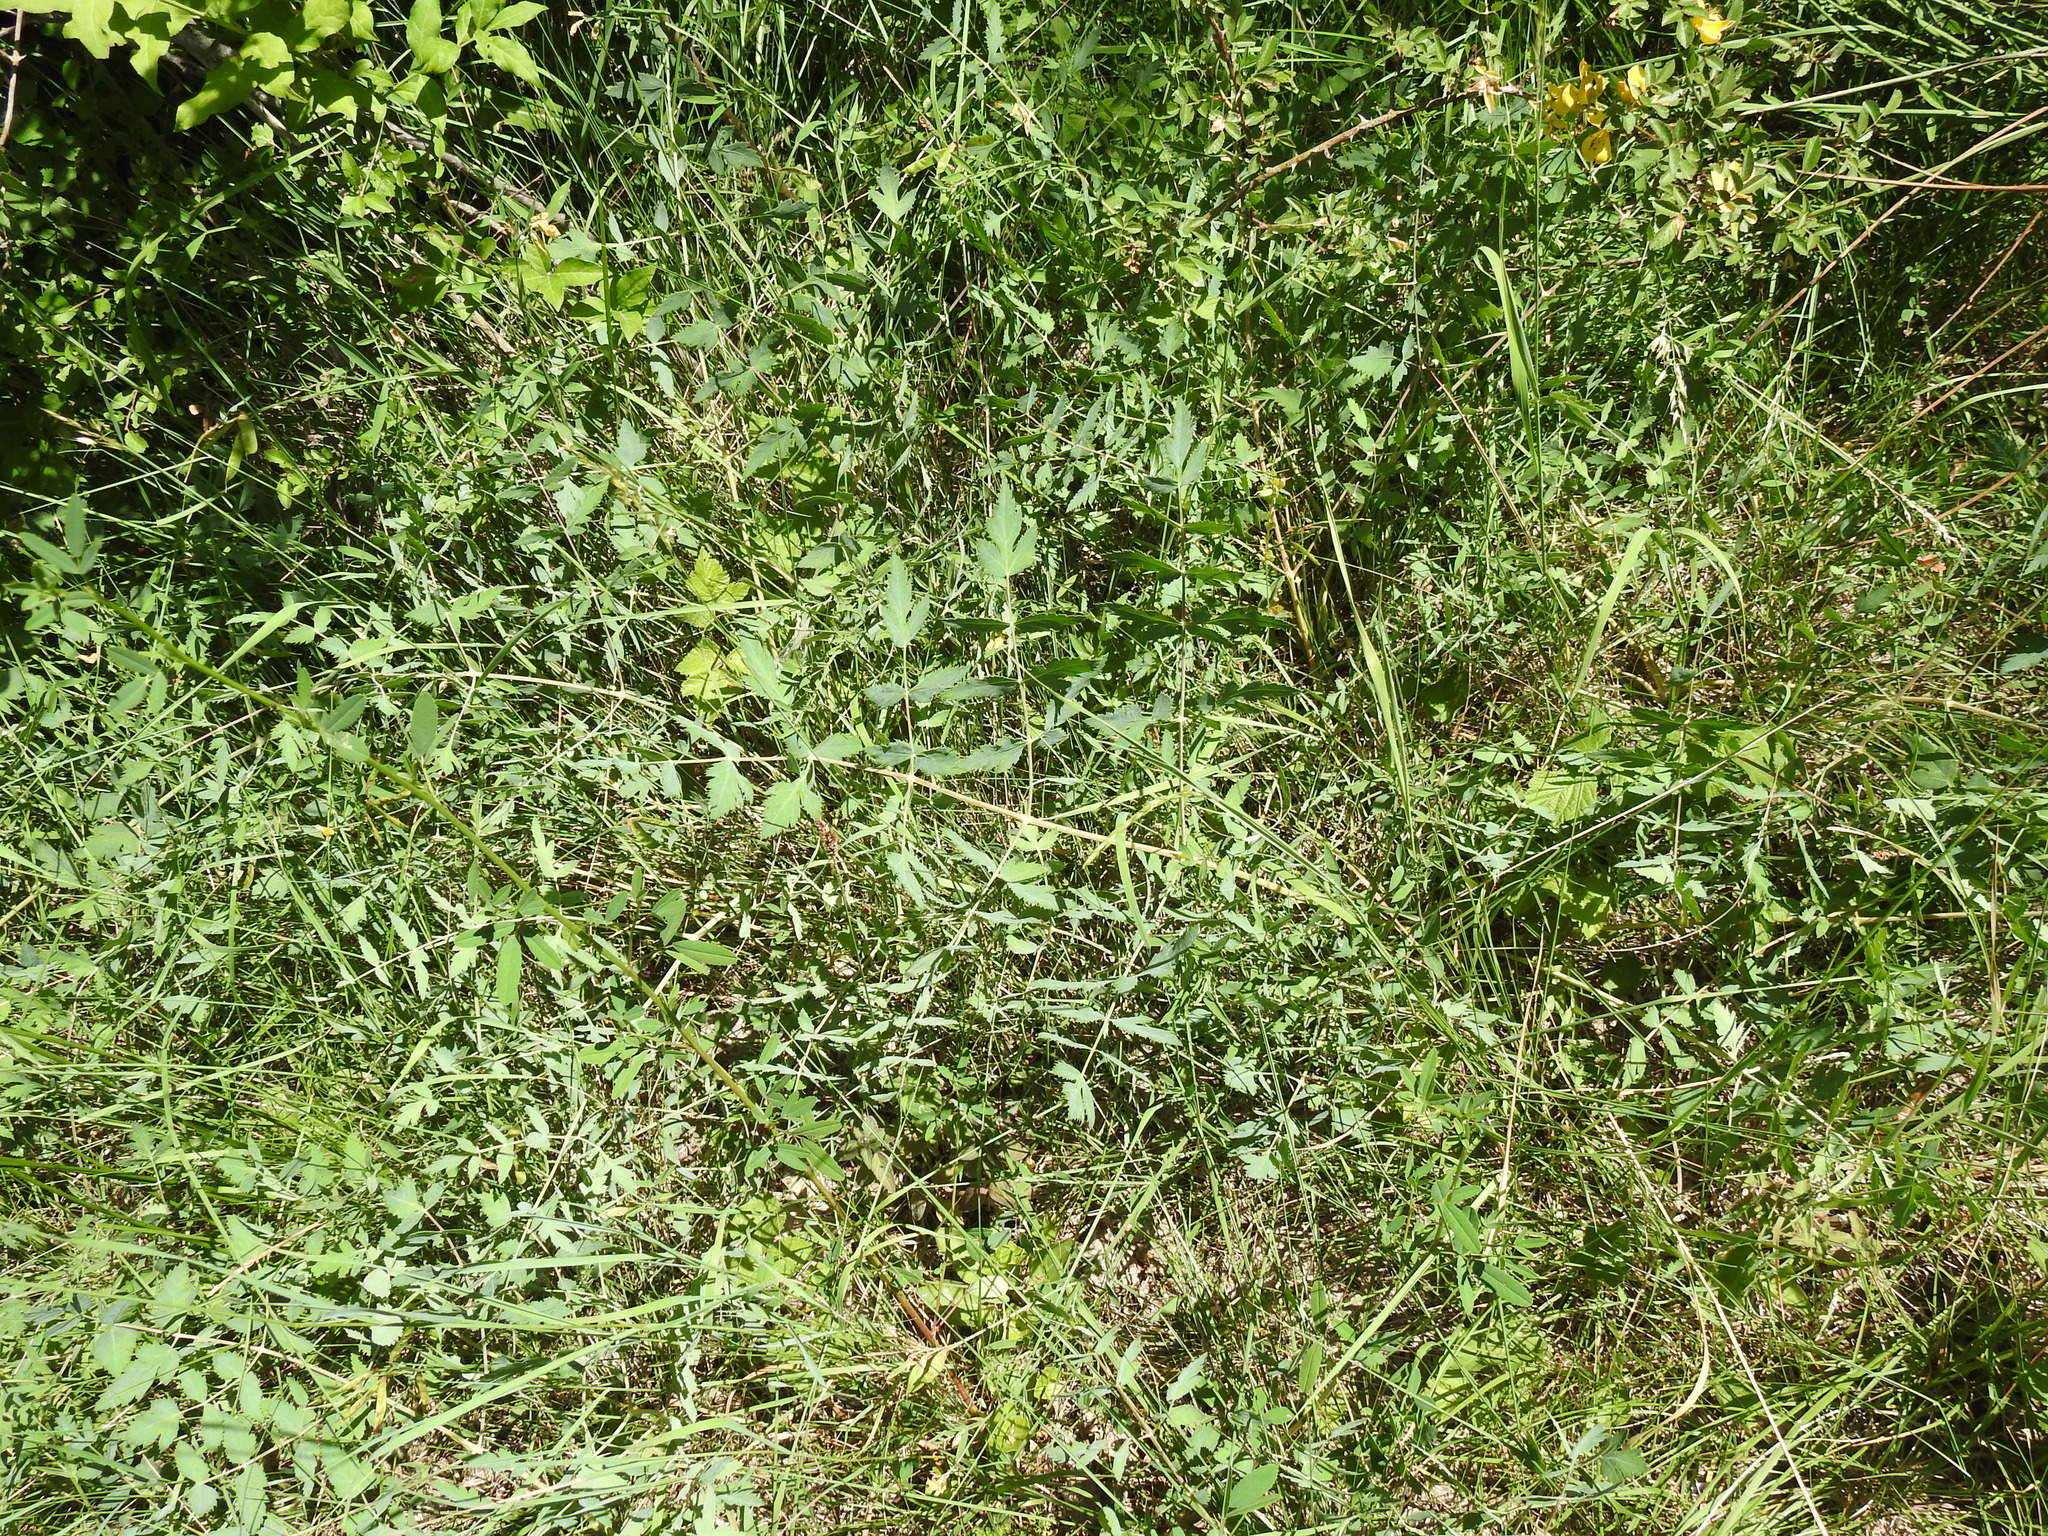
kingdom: Plantae
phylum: Tracheophyta
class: Magnoliopsida
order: Apiales
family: Apiaceae
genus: Cervaria
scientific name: Cervaria rivini
